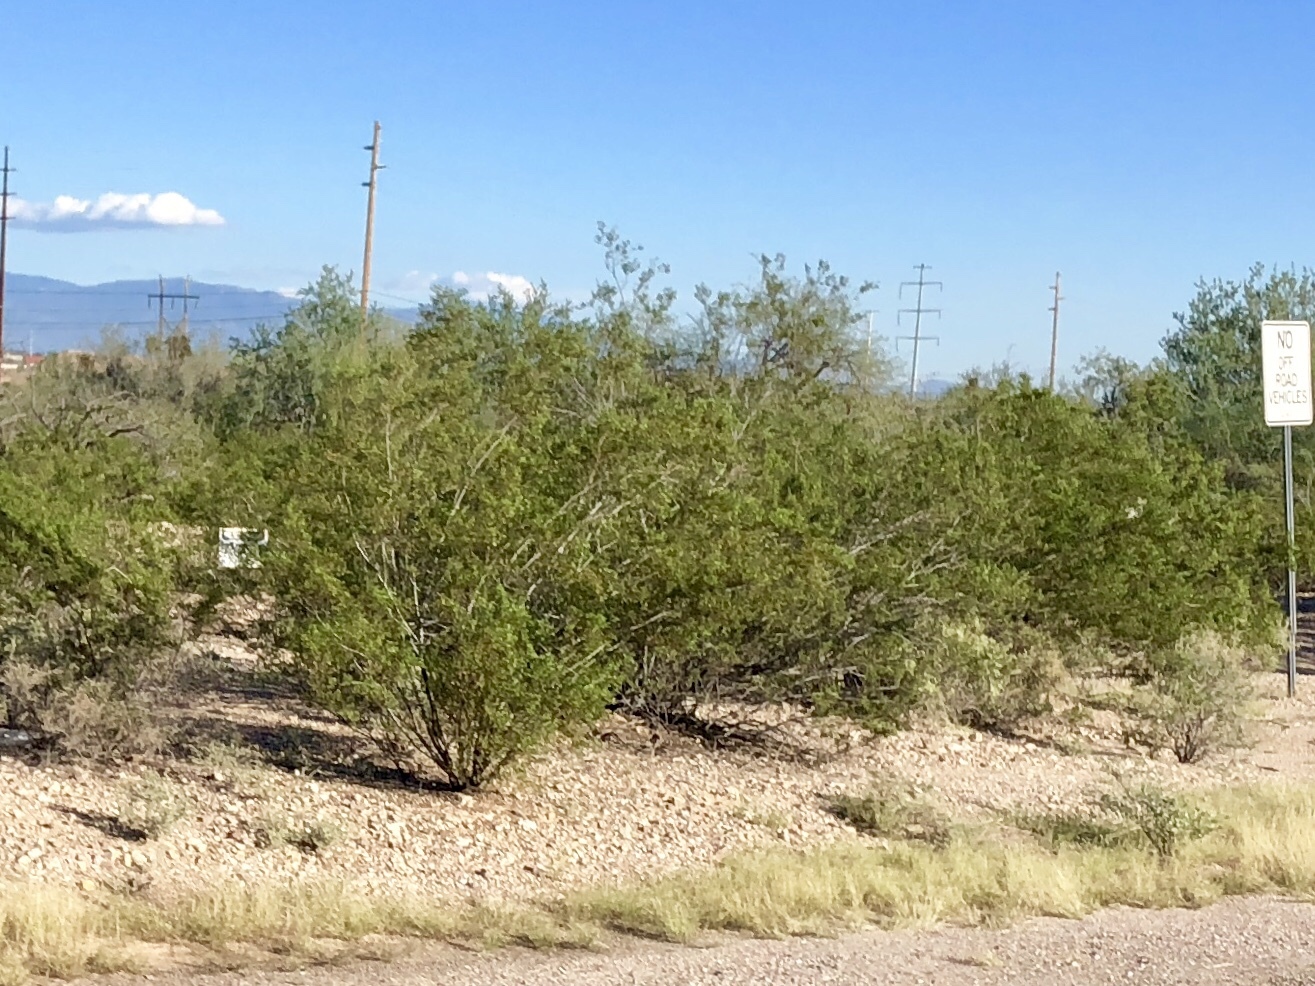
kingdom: Plantae
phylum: Tracheophyta
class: Magnoliopsida
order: Zygophyllales
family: Zygophyllaceae
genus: Larrea
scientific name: Larrea tridentata
